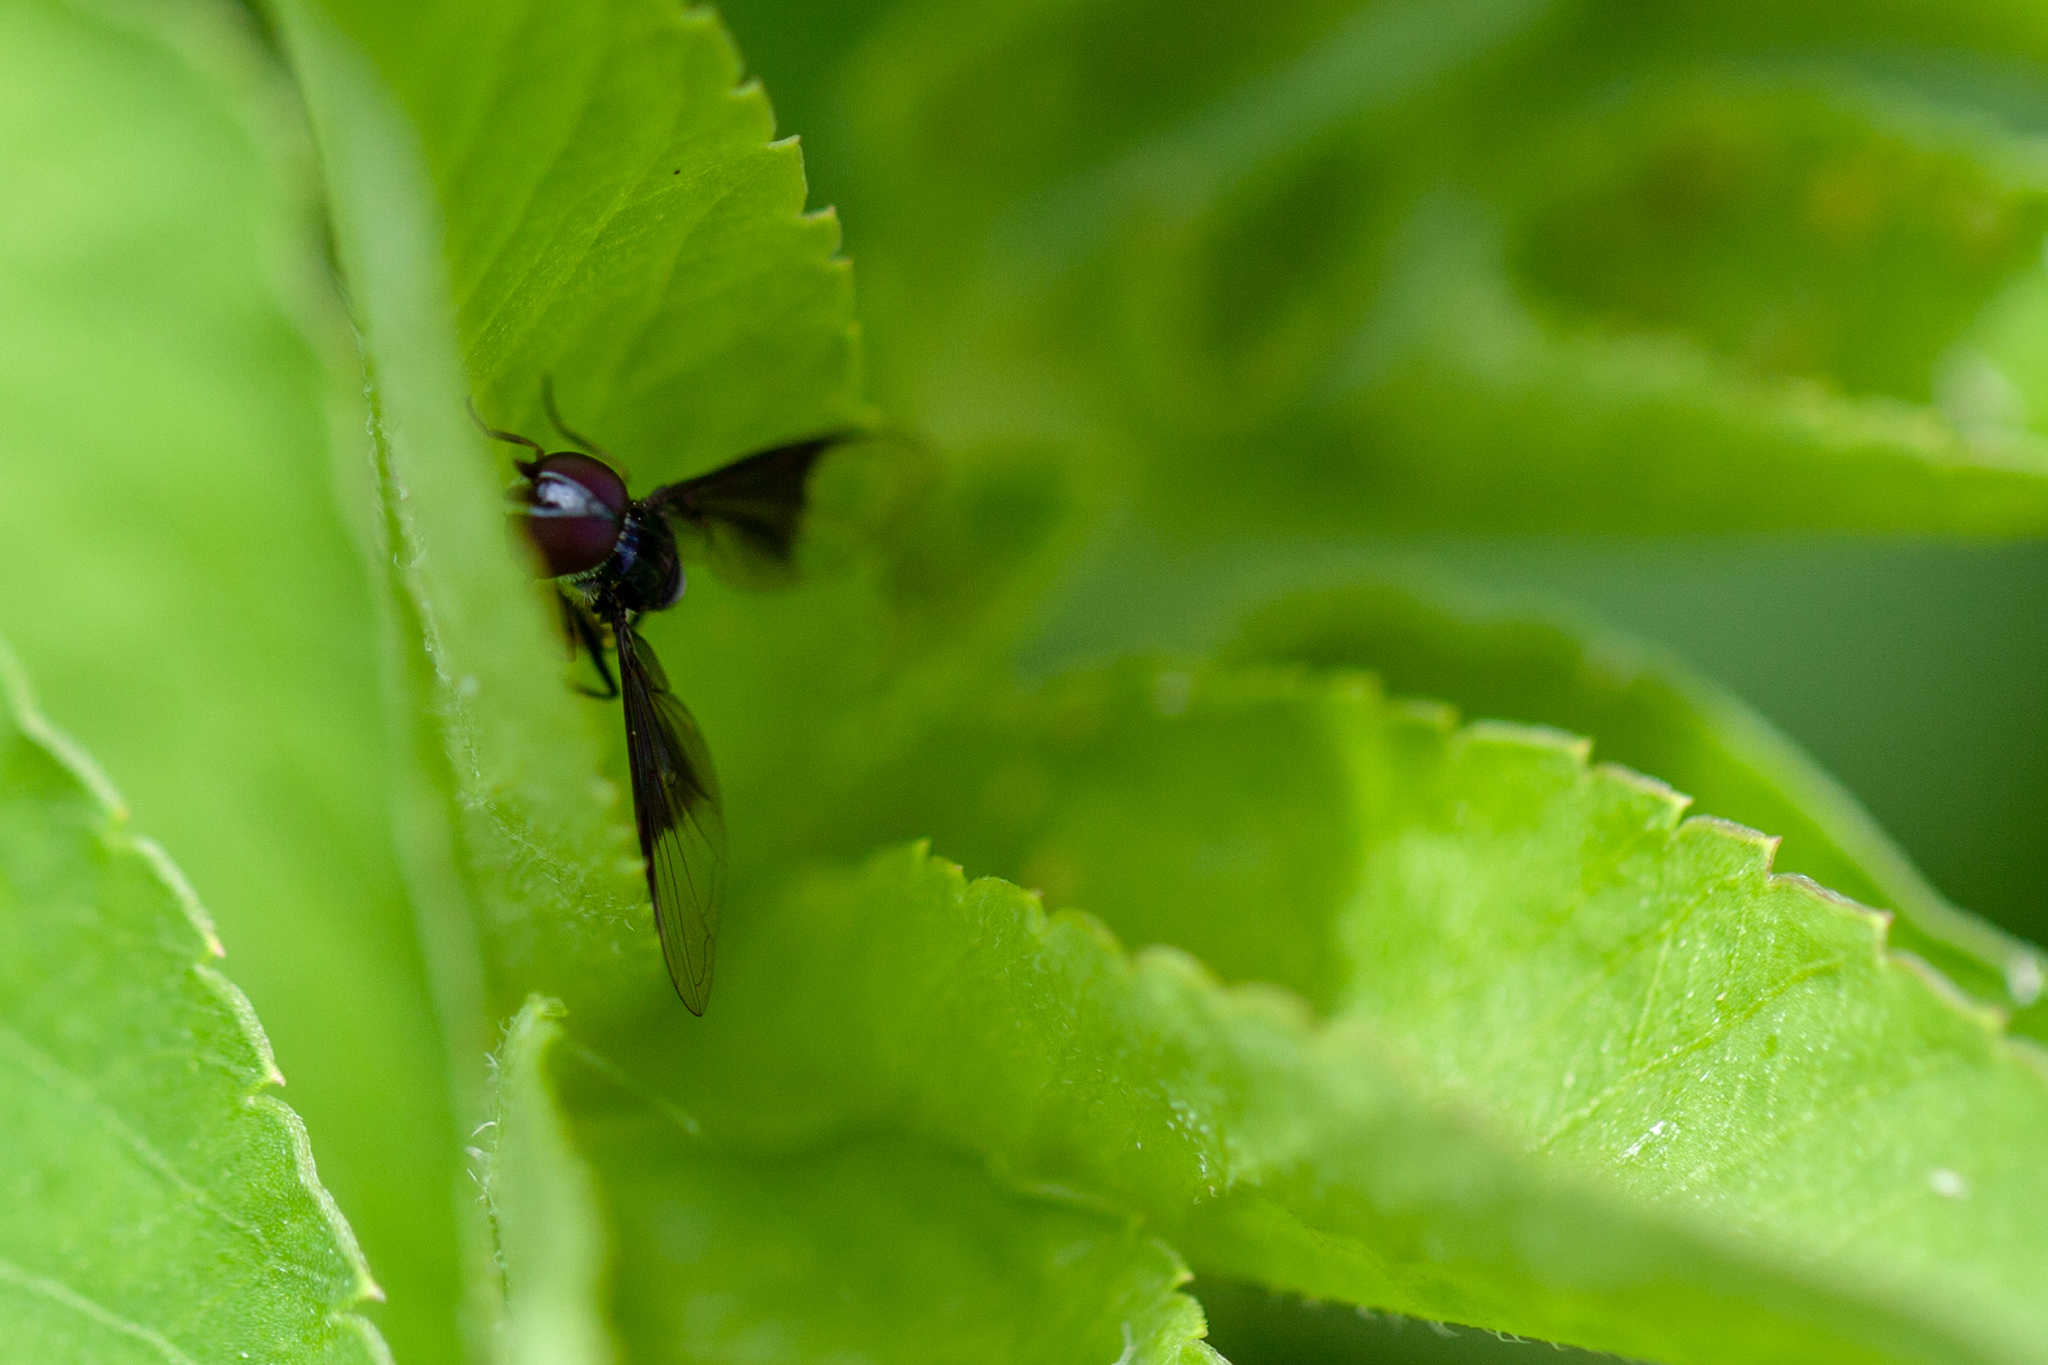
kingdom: Animalia
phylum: Arthropoda
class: Insecta
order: Diptera
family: Syrphidae
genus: Ocyptamus
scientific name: Ocyptamus dimidiatus
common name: Syrphid fly
